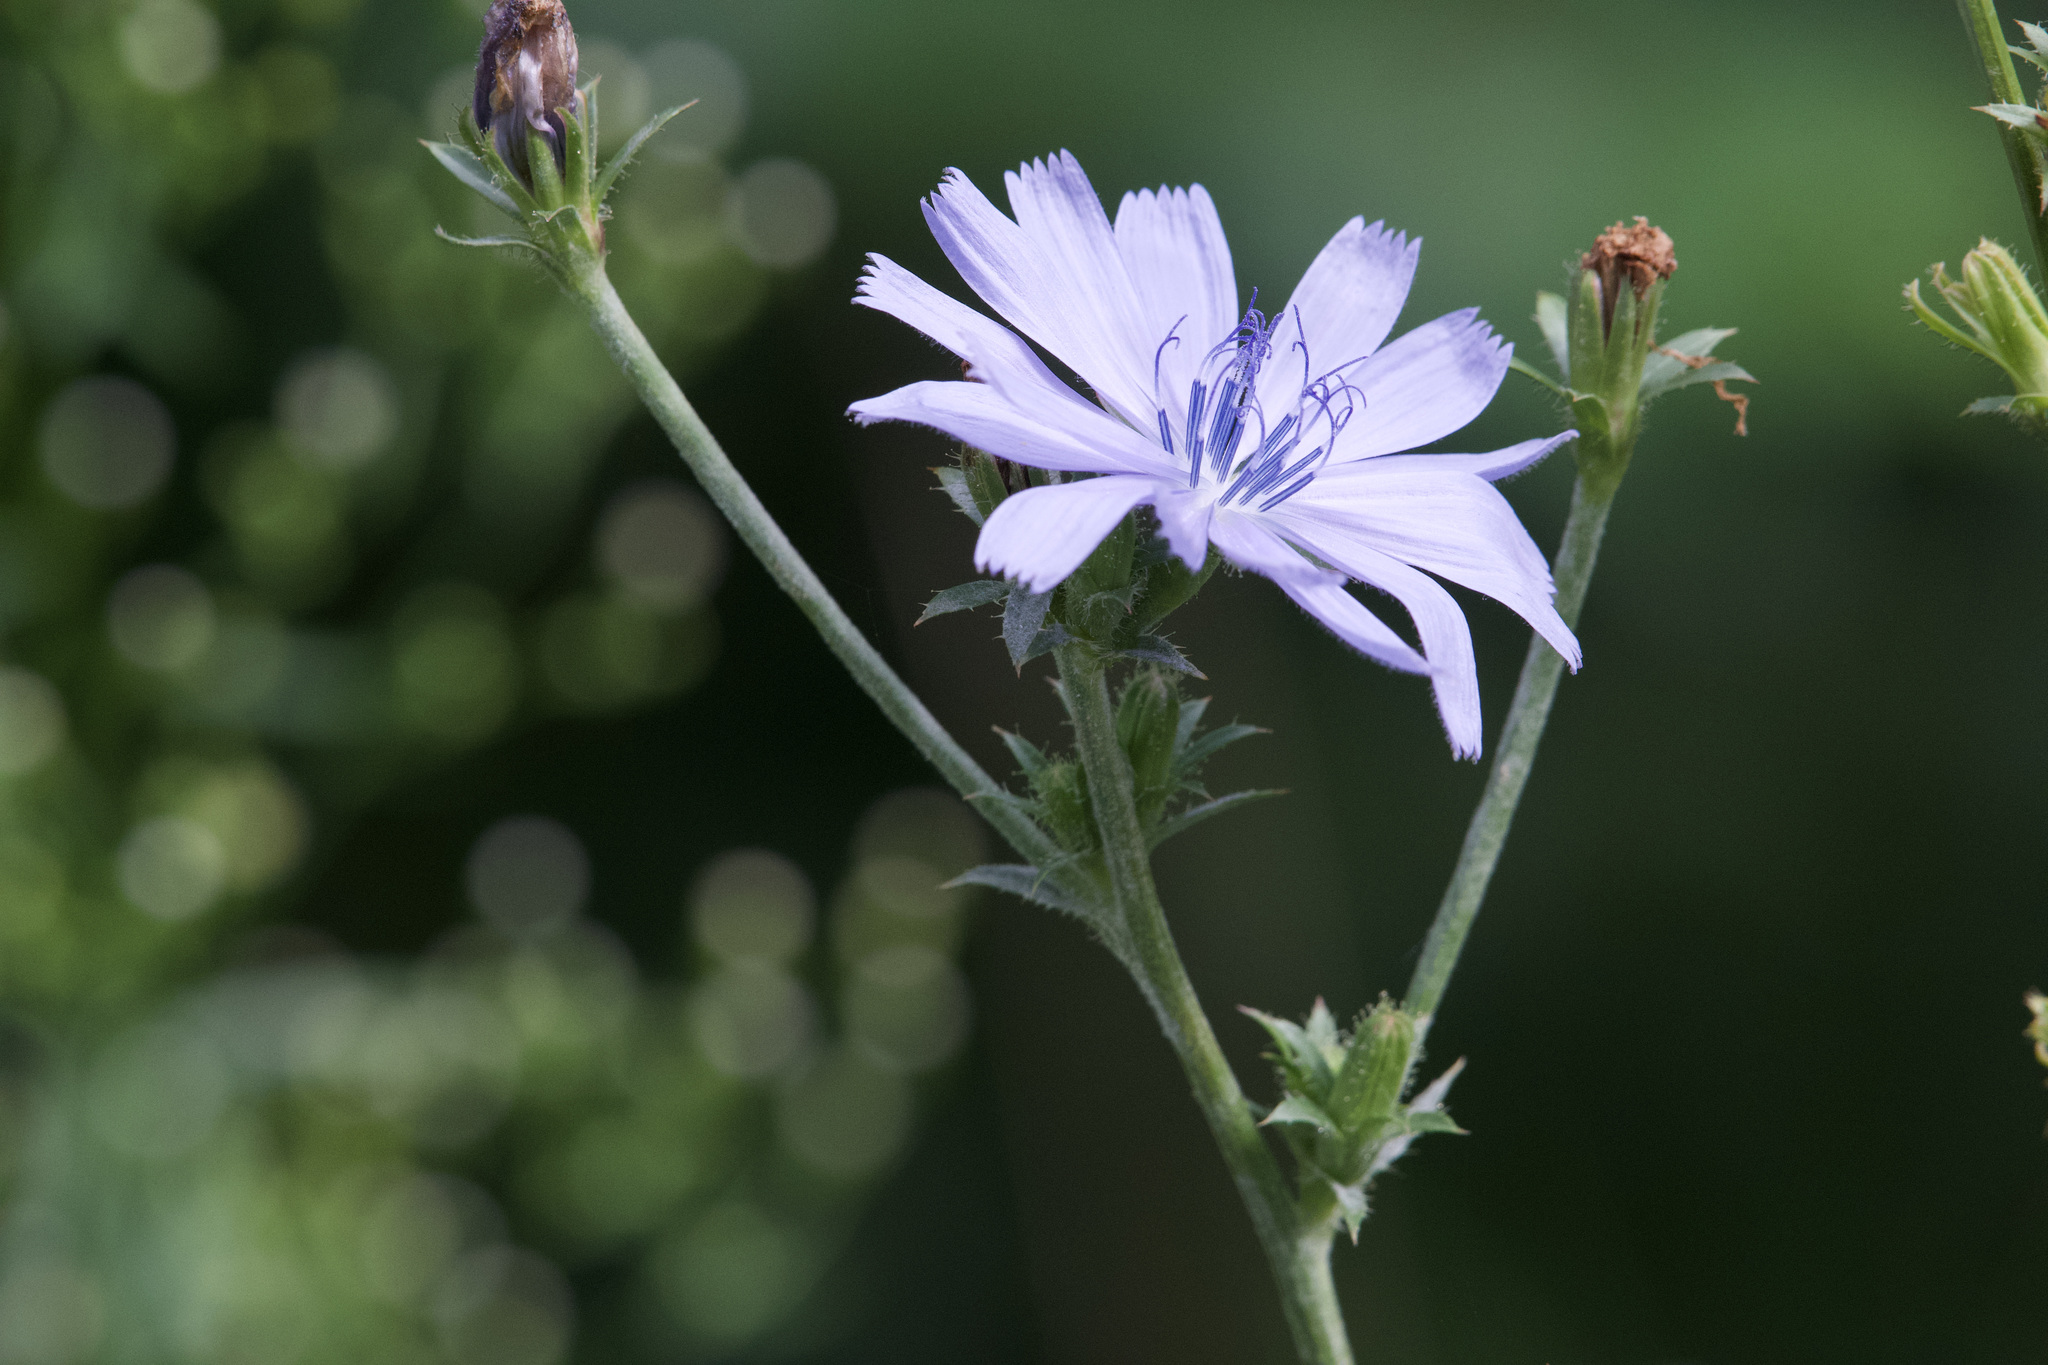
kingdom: Plantae
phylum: Tracheophyta
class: Magnoliopsida
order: Asterales
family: Asteraceae
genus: Cichorium
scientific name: Cichorium intybus
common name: Chicory
